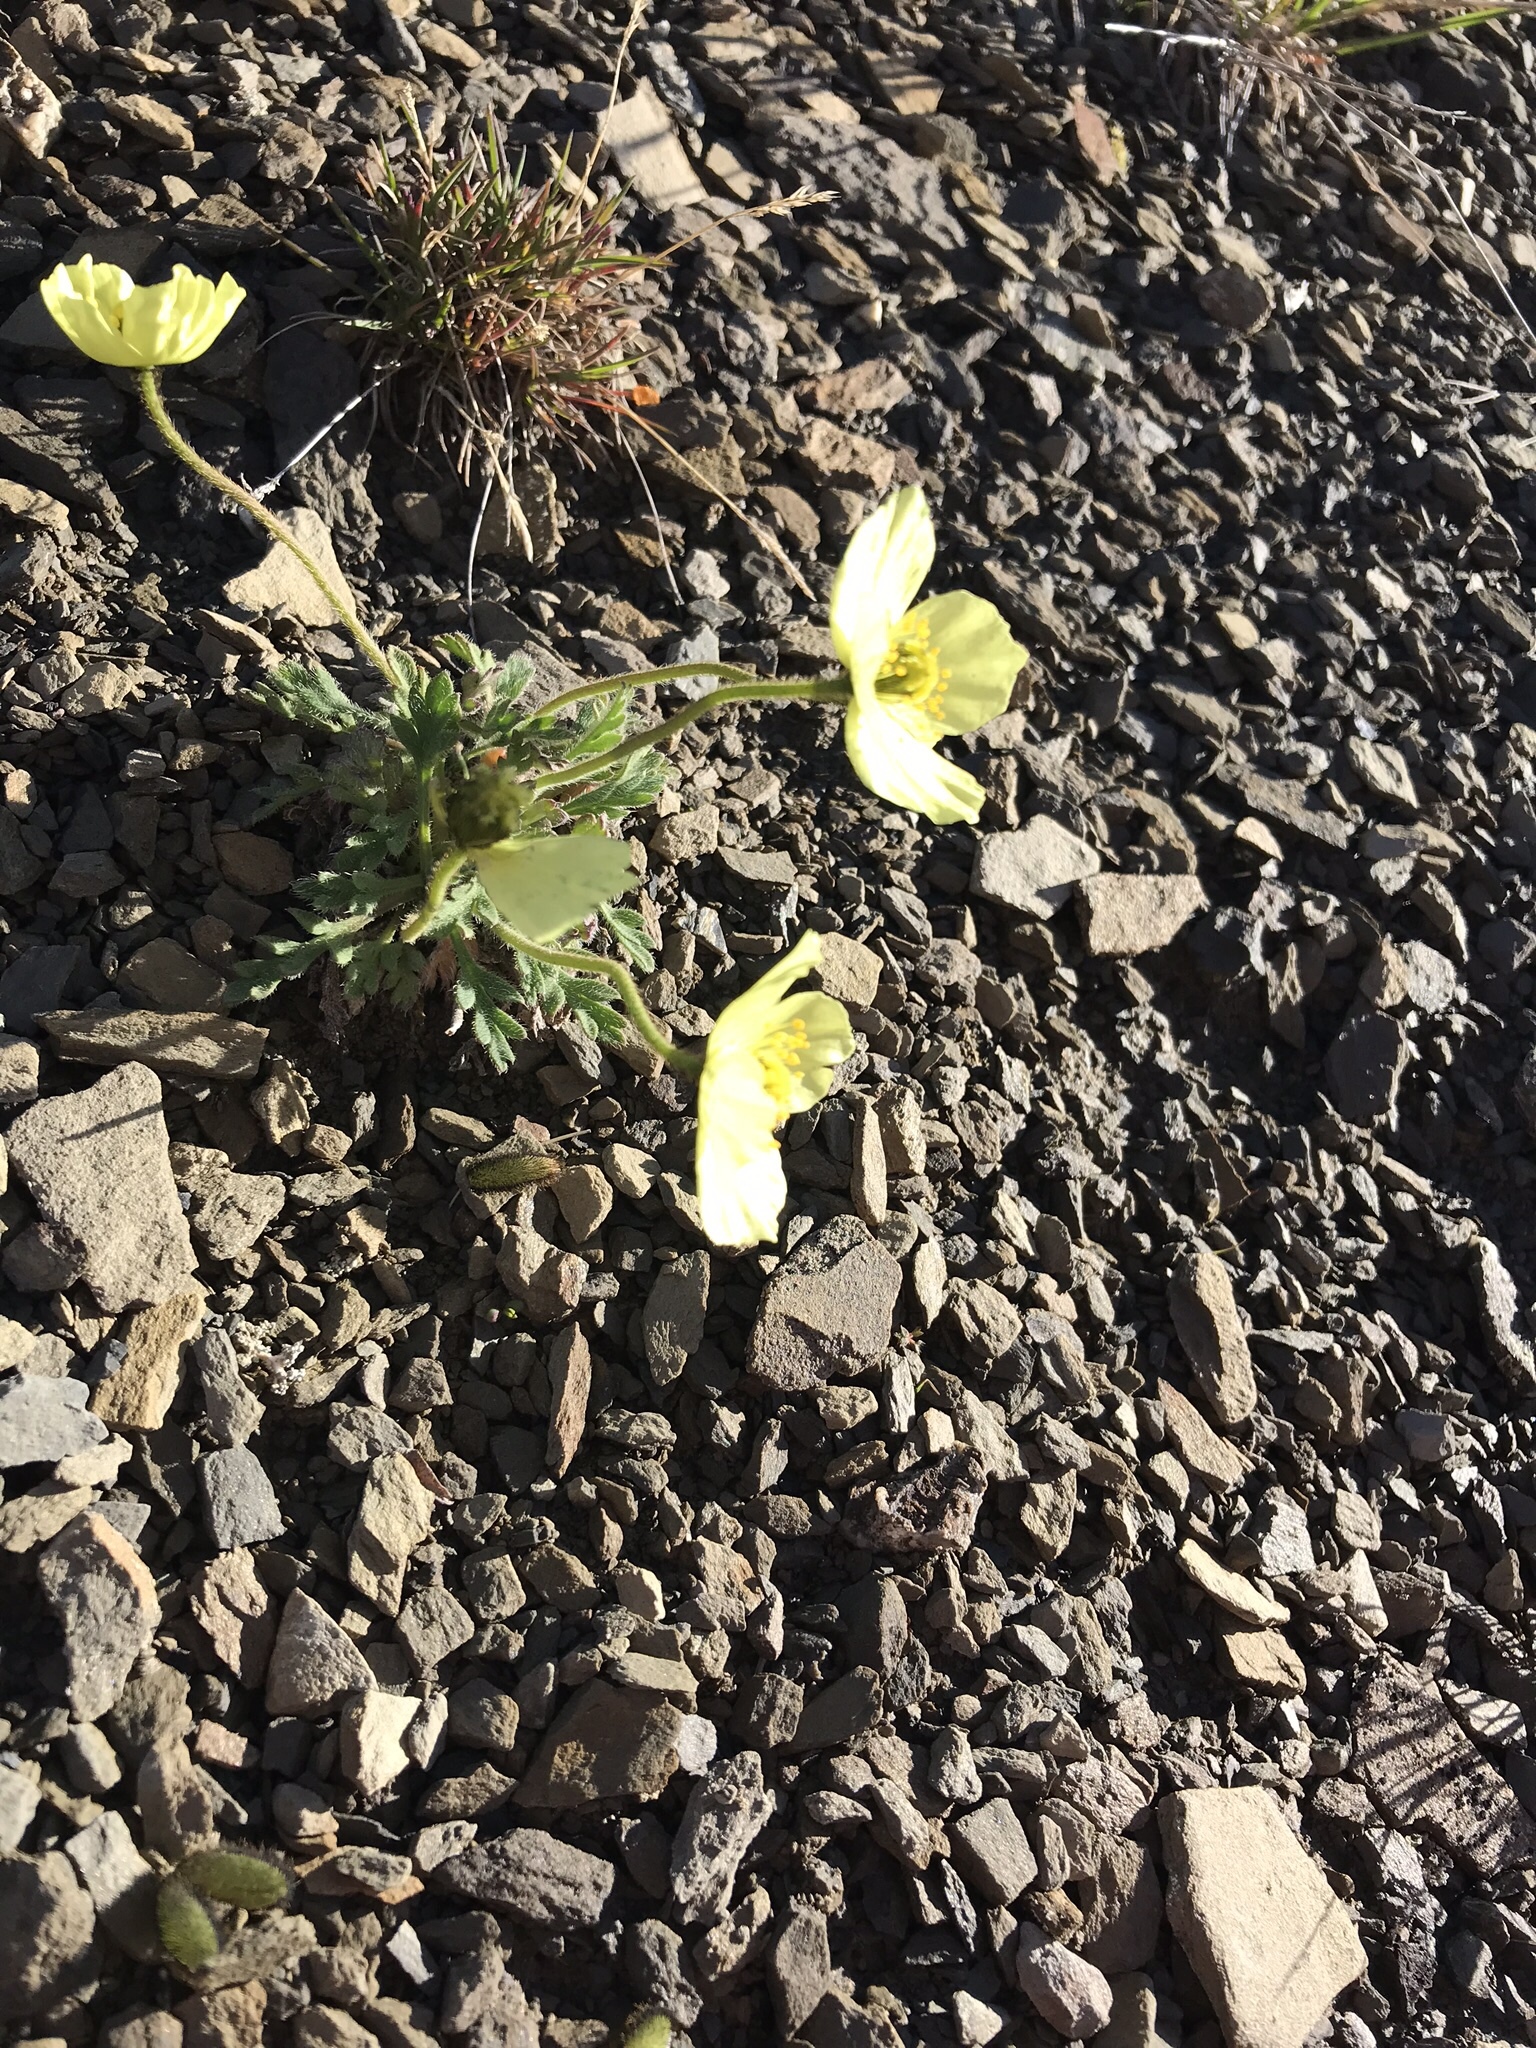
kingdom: Plantae
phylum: Tracheophyta
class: Magnoliopsida
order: Ranunculales
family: Papaveraceae
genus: Papaver
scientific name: Papaver radicatum
